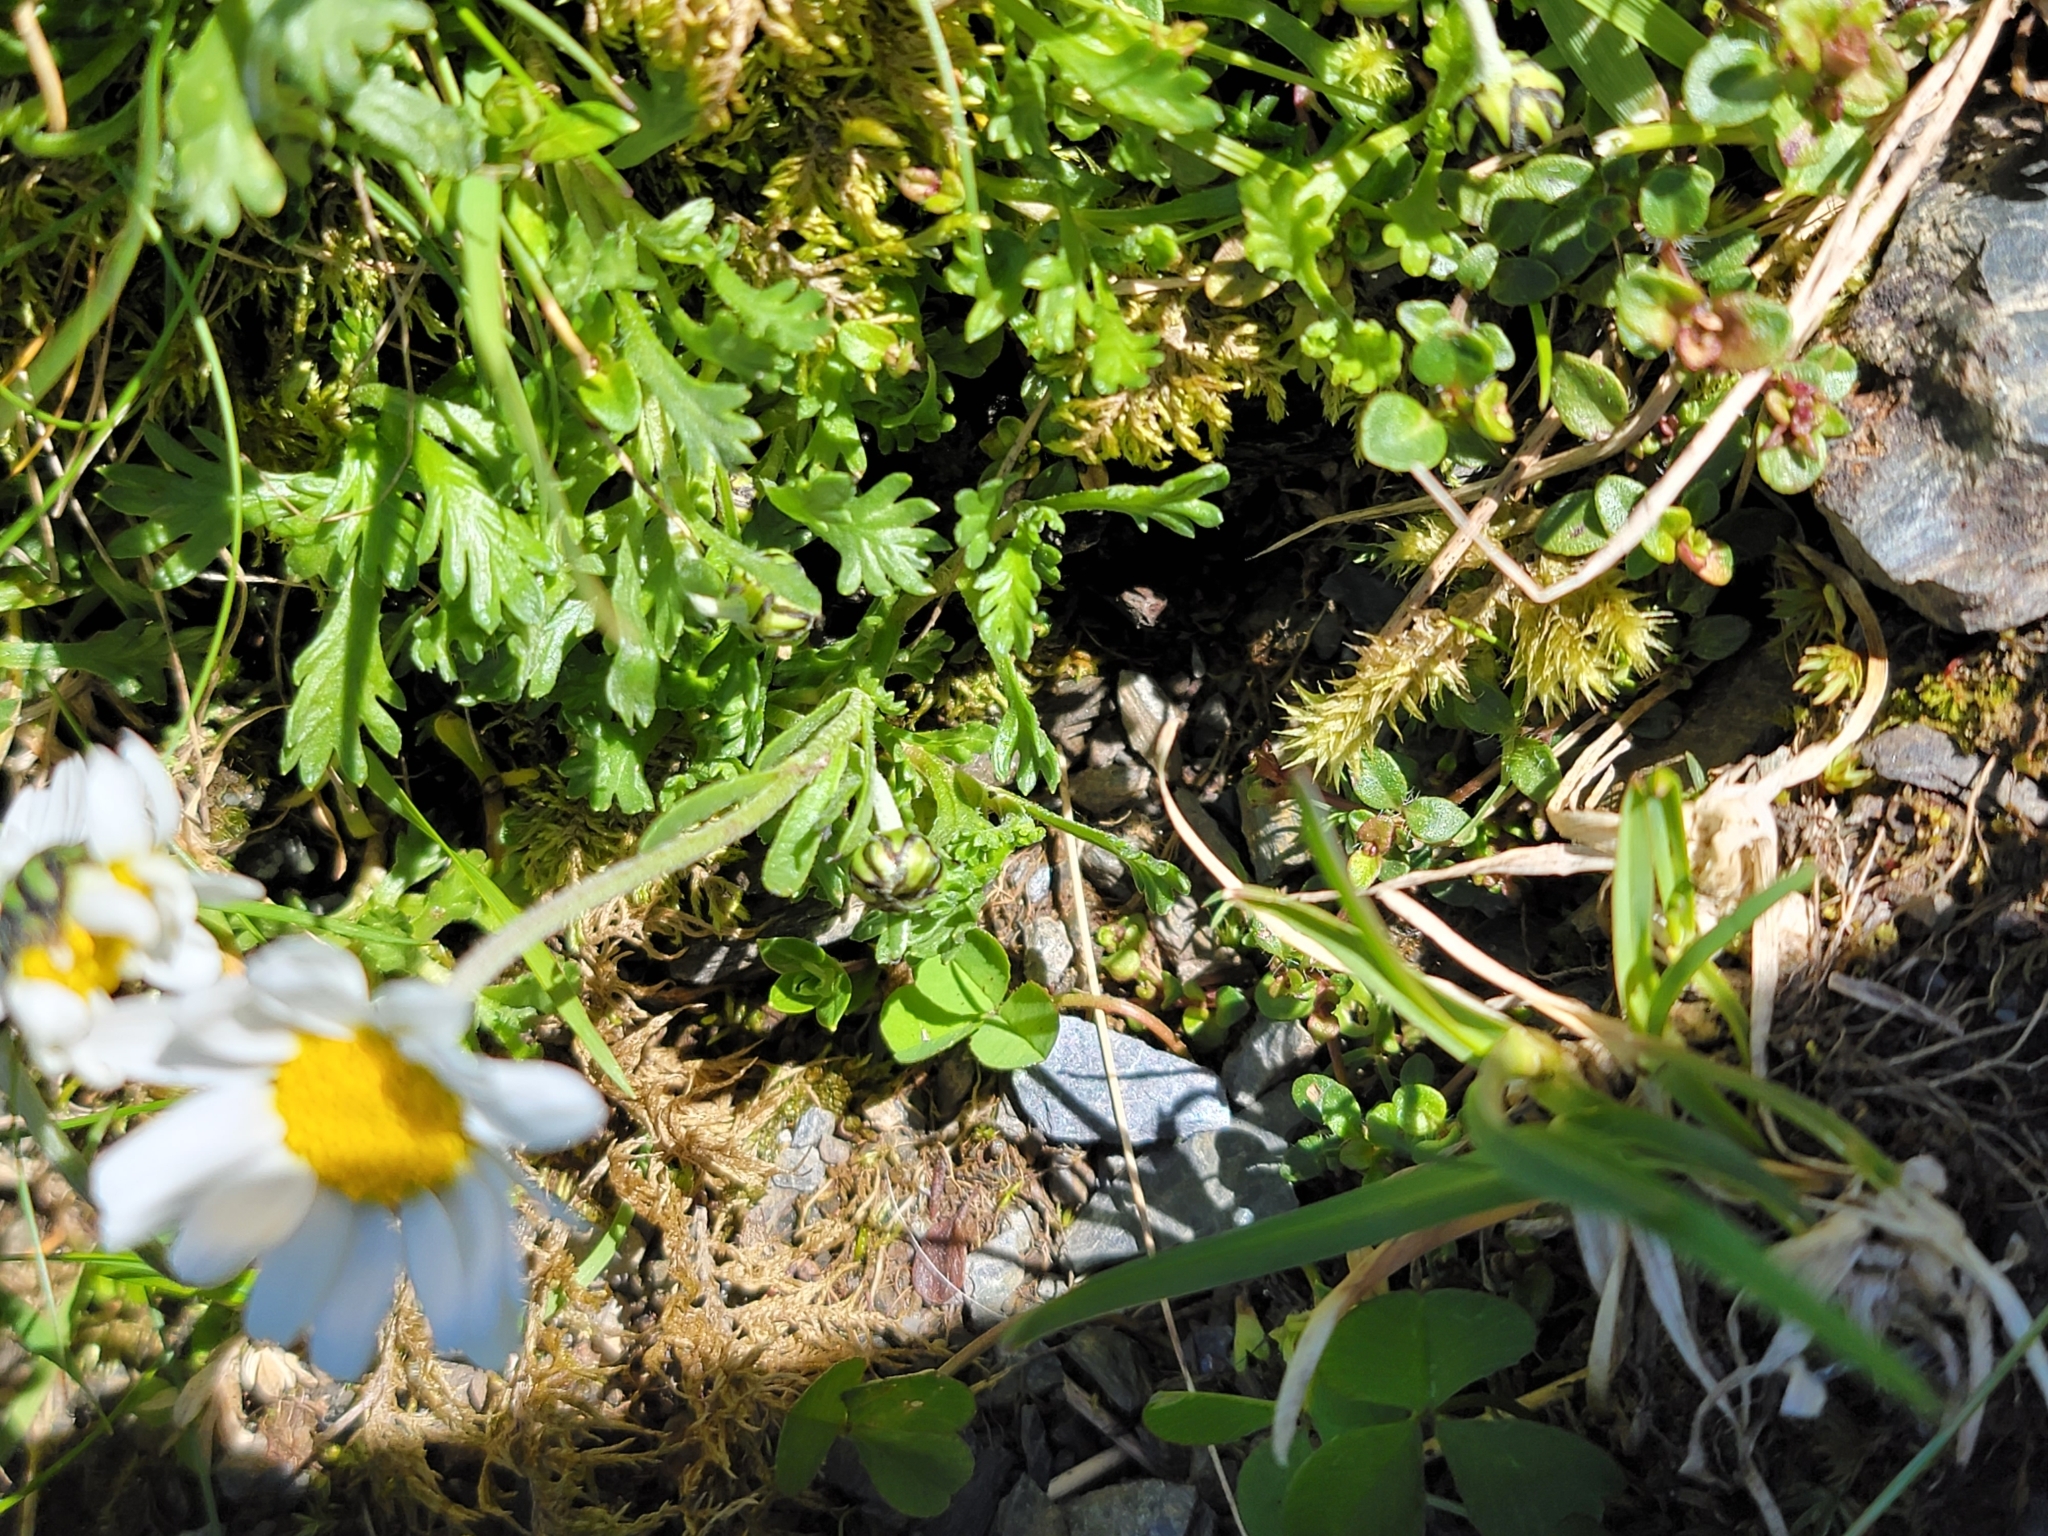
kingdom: Plantae
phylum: Tracheophyta
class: Magnoliopsida
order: Asterales
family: Asteraceae
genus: Leucanthemopsis
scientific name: Leucanthemopsis alpina
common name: Alpine moon daisy
